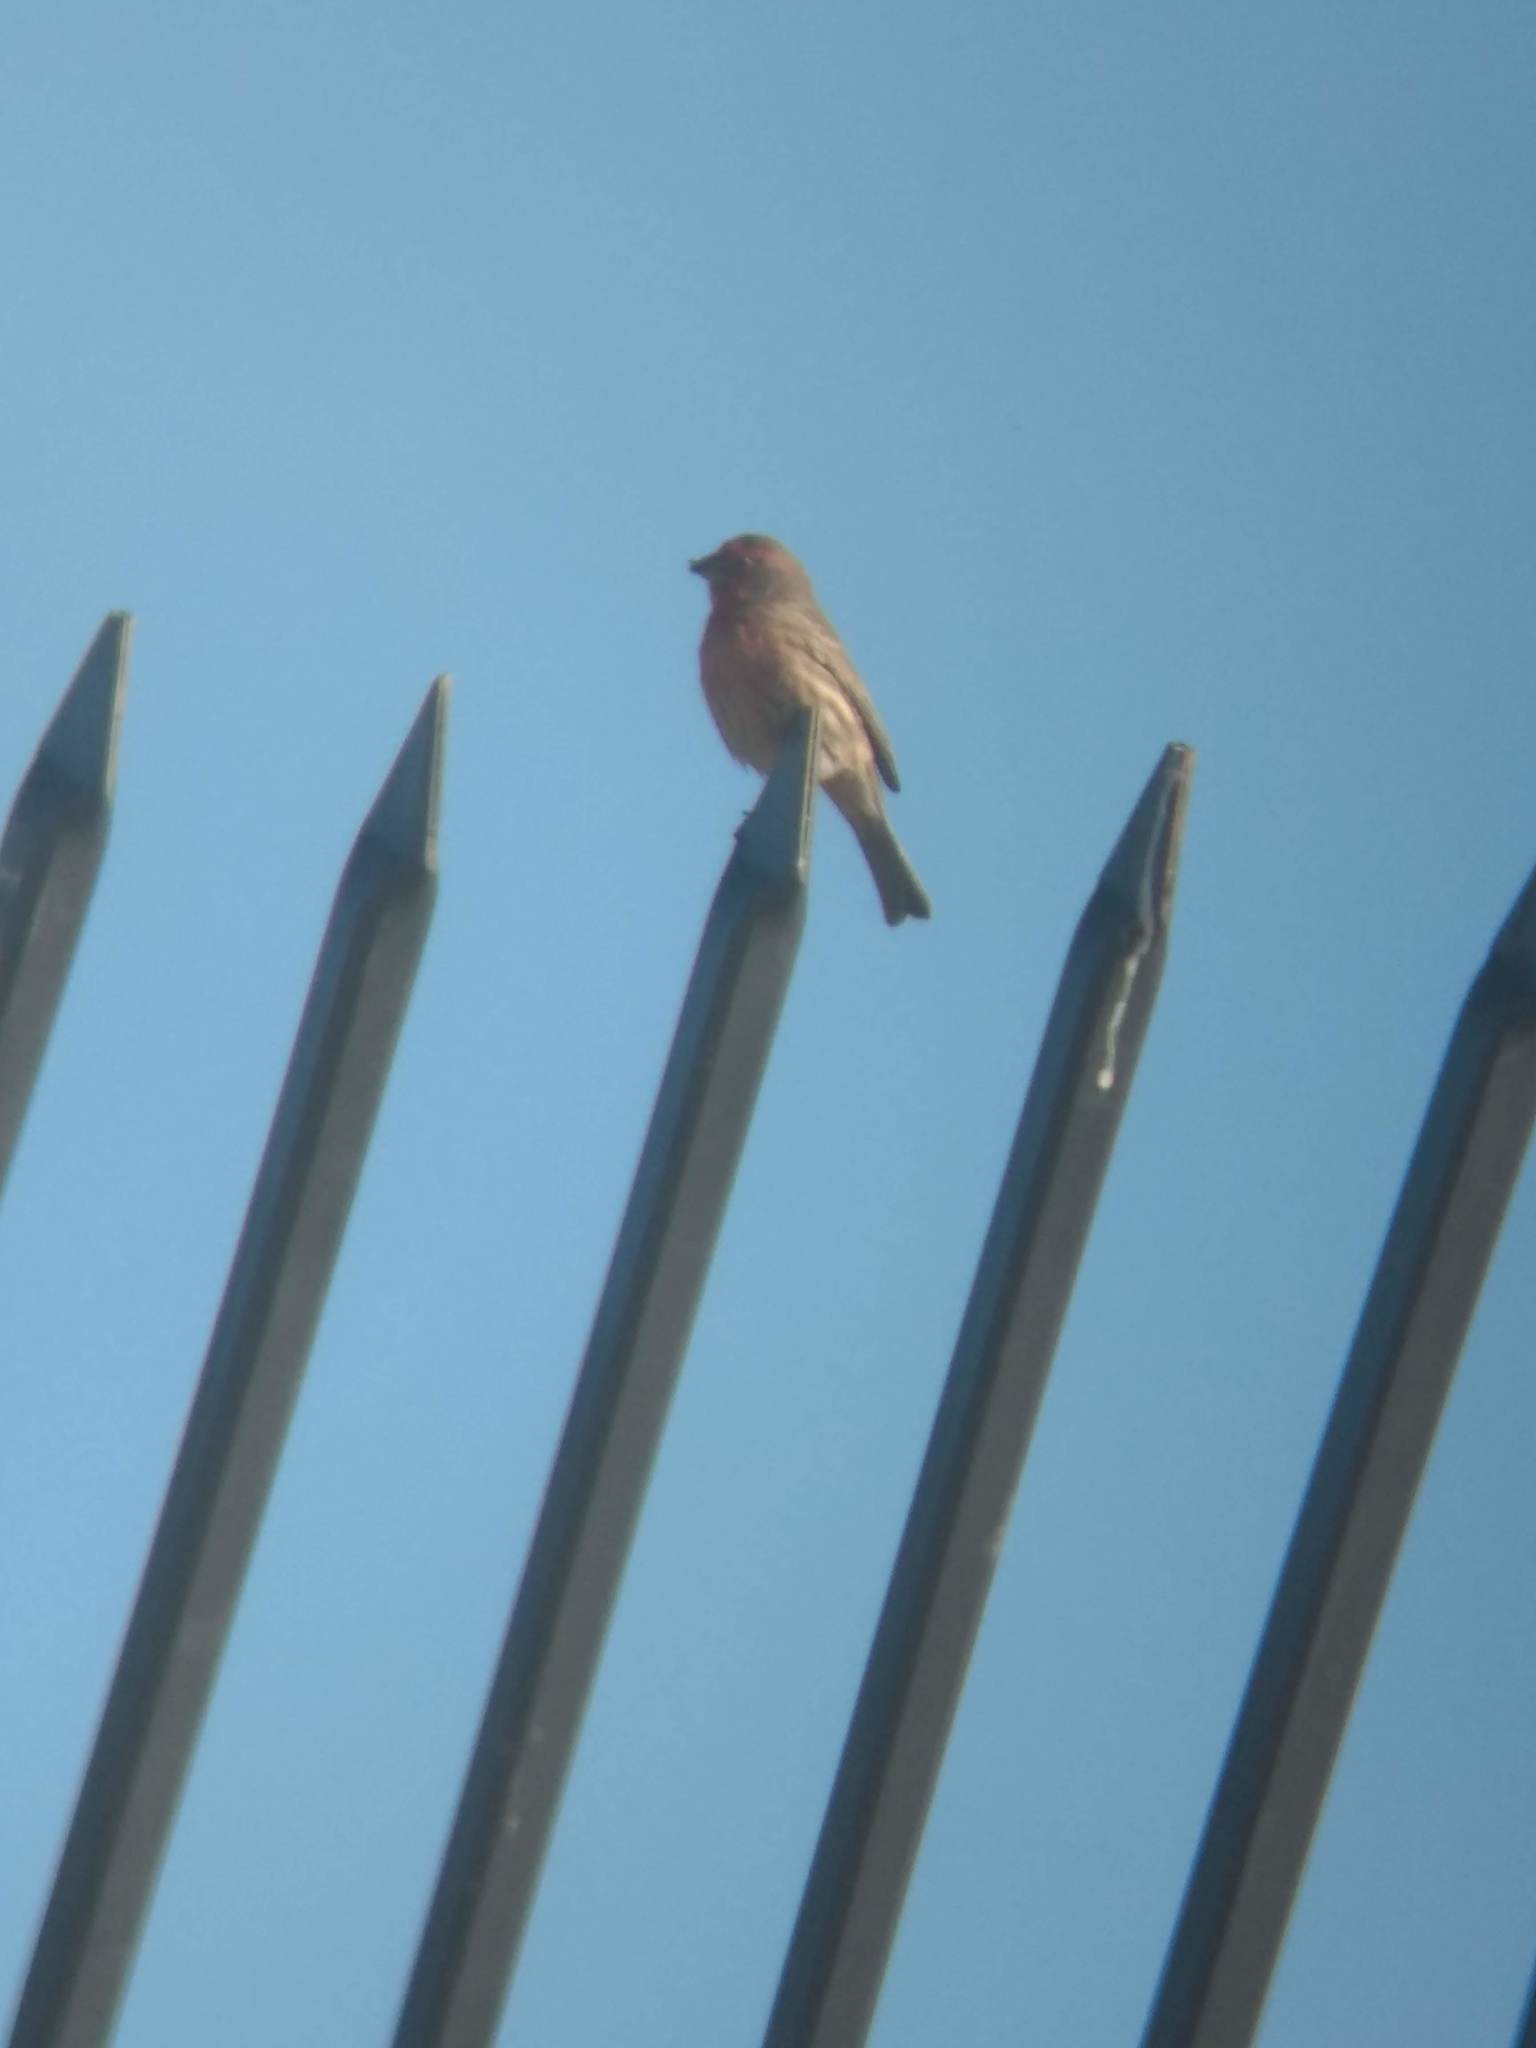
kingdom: Animalia
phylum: Chordata
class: Aves
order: Passeriformes
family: Fringillidae
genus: Haemorhous
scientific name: Haemorhous mexicanus
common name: House finch
